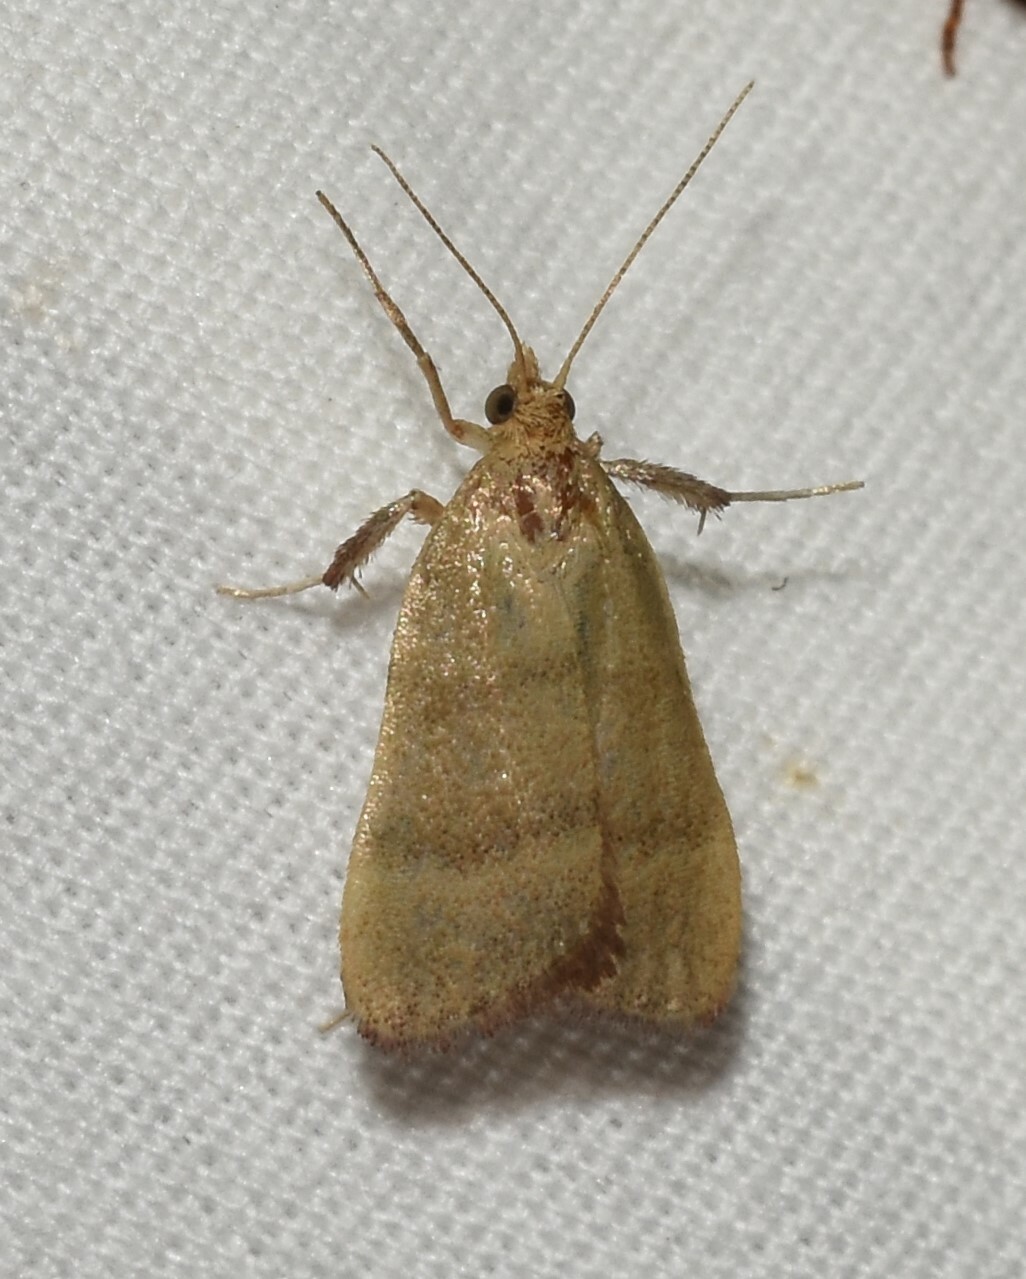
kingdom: Animalia
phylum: Arthropoda
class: Insecta
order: Lepidoptera
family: Pyralidae
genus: Condylolomia
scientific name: Condylolomia participialis
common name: Drab condylolomia moth
